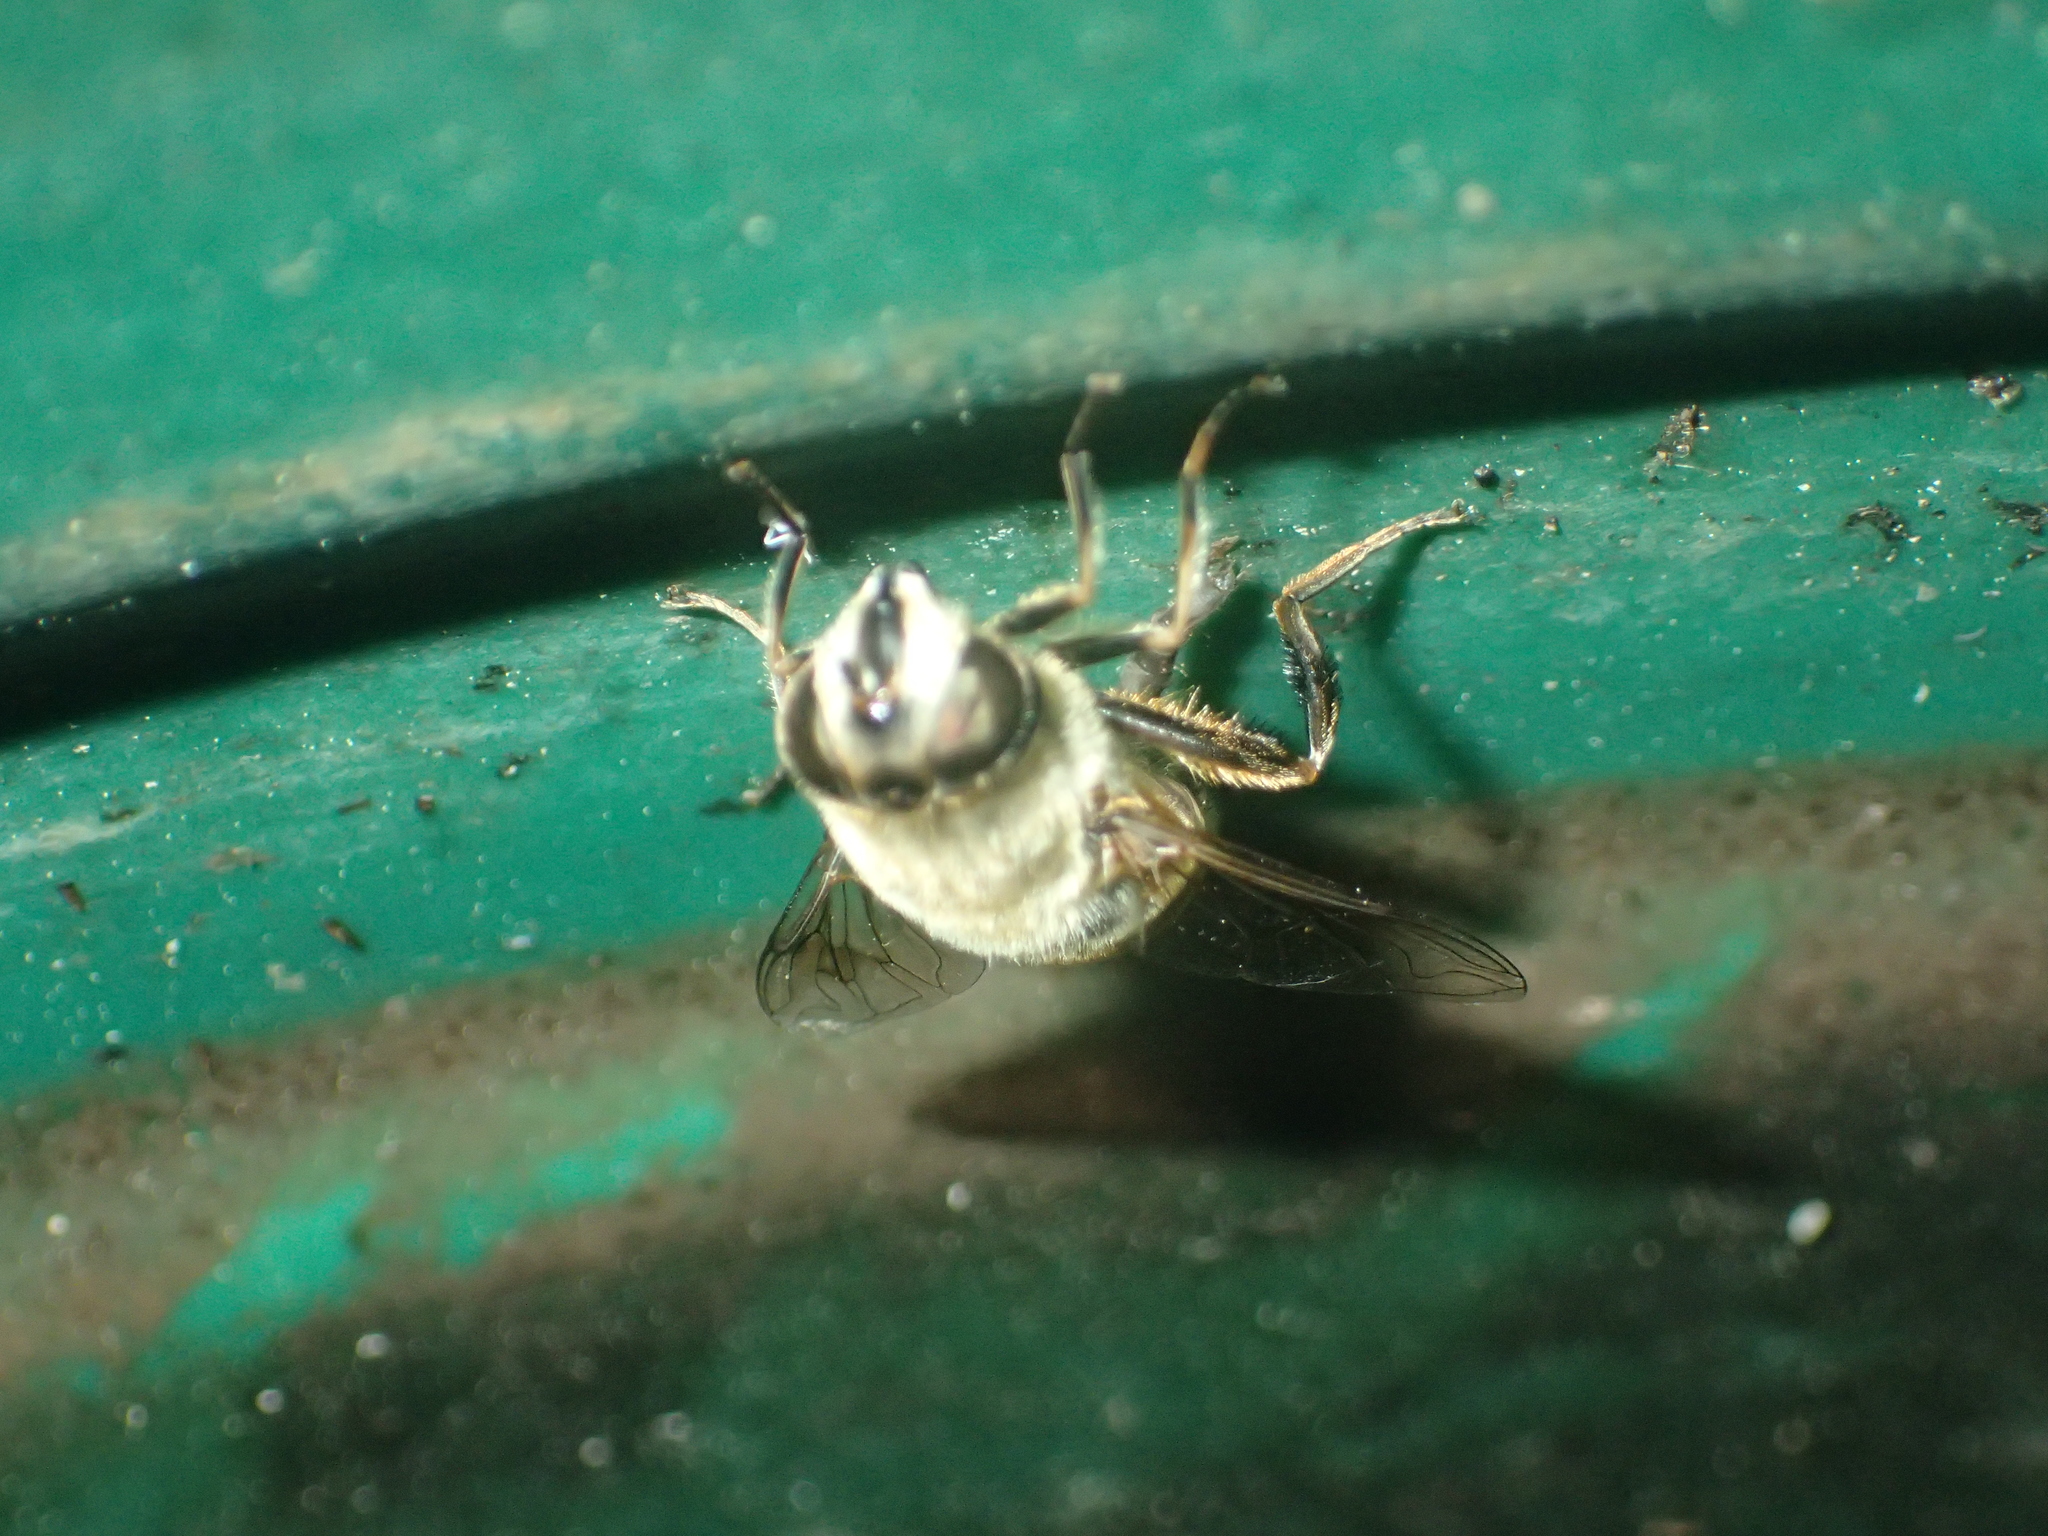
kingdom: Animalia
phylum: Arthropoda
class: Insecta
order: Diptera
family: Syrphidae
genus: Eristalis
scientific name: Eristalis tenax
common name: Drone fly
